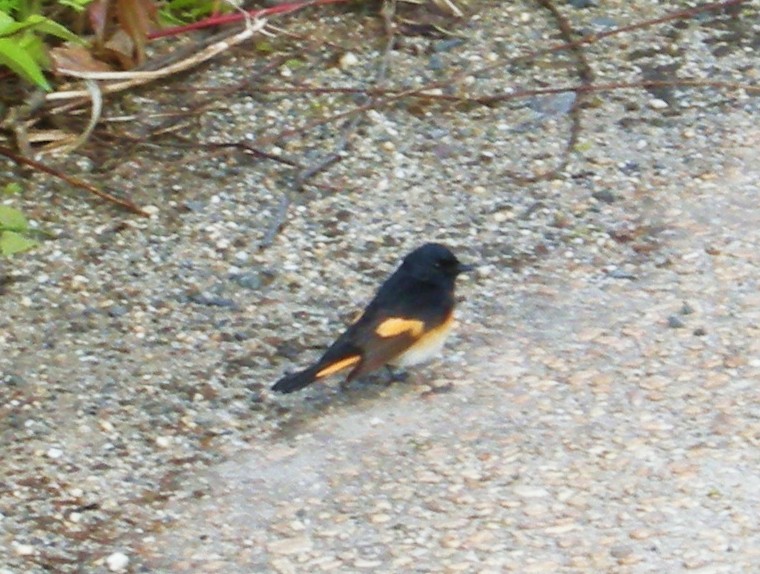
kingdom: Animalia
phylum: Chordata
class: Aves
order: Passeriformes
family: Parulidae
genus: Setophaga
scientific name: Setophaga ruticilla
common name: American redstart
